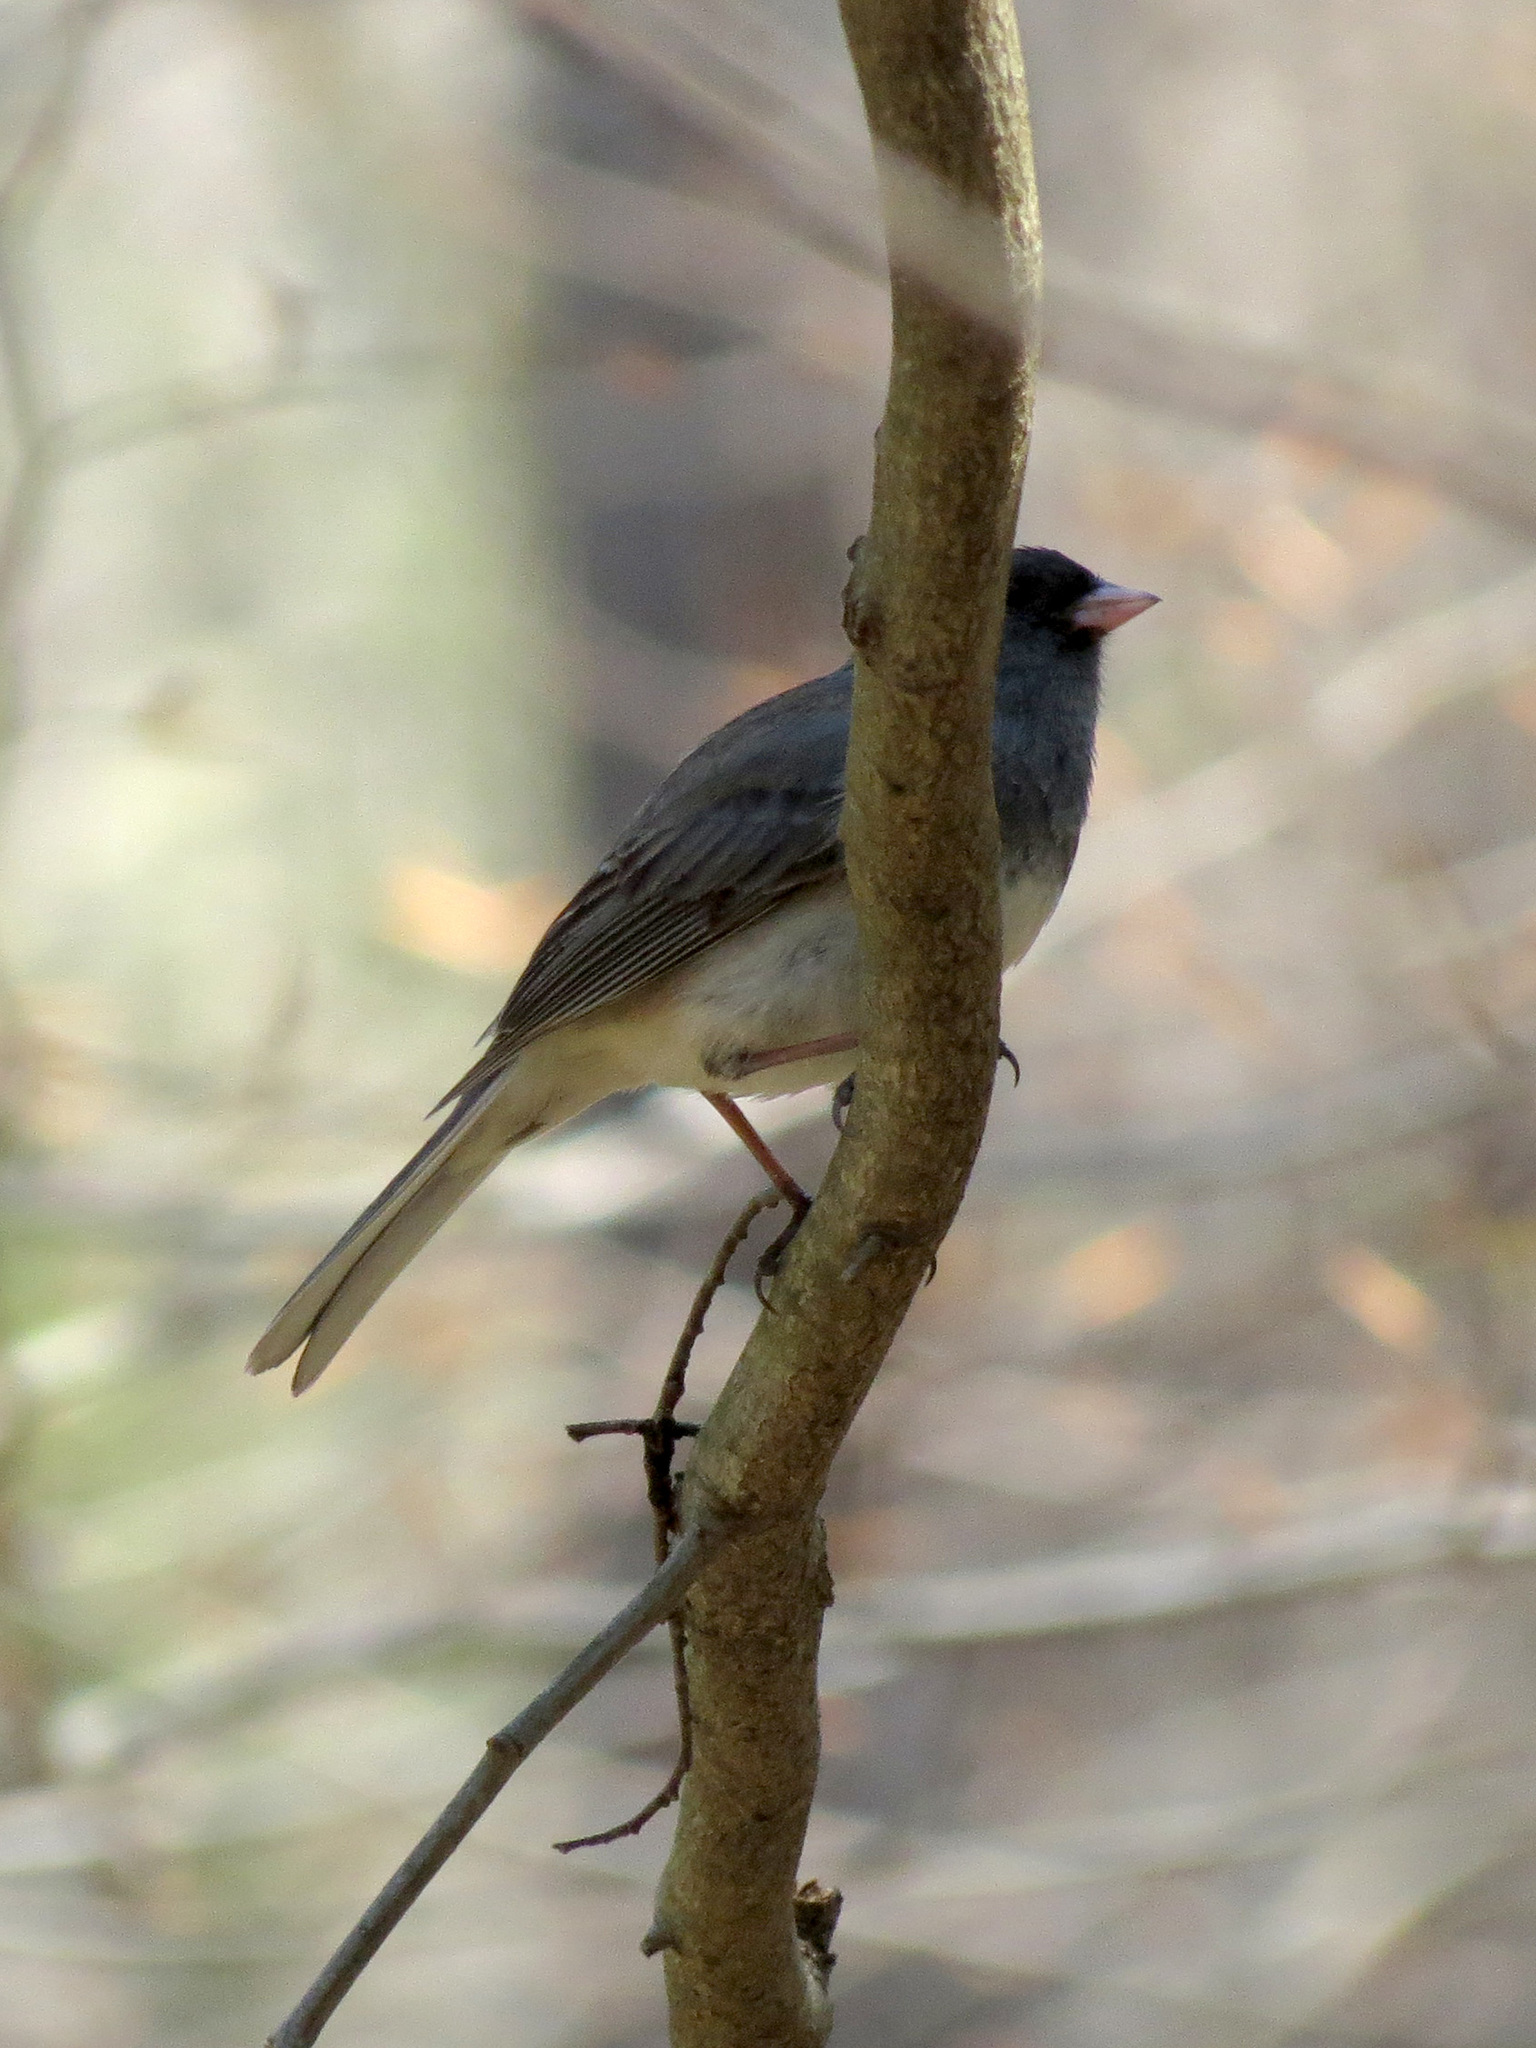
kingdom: Animalia
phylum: Chordata
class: Aves
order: Passeriformes
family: Passerellidae
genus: Junco
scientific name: Junco hyemalis
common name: Dark-eyed junco
